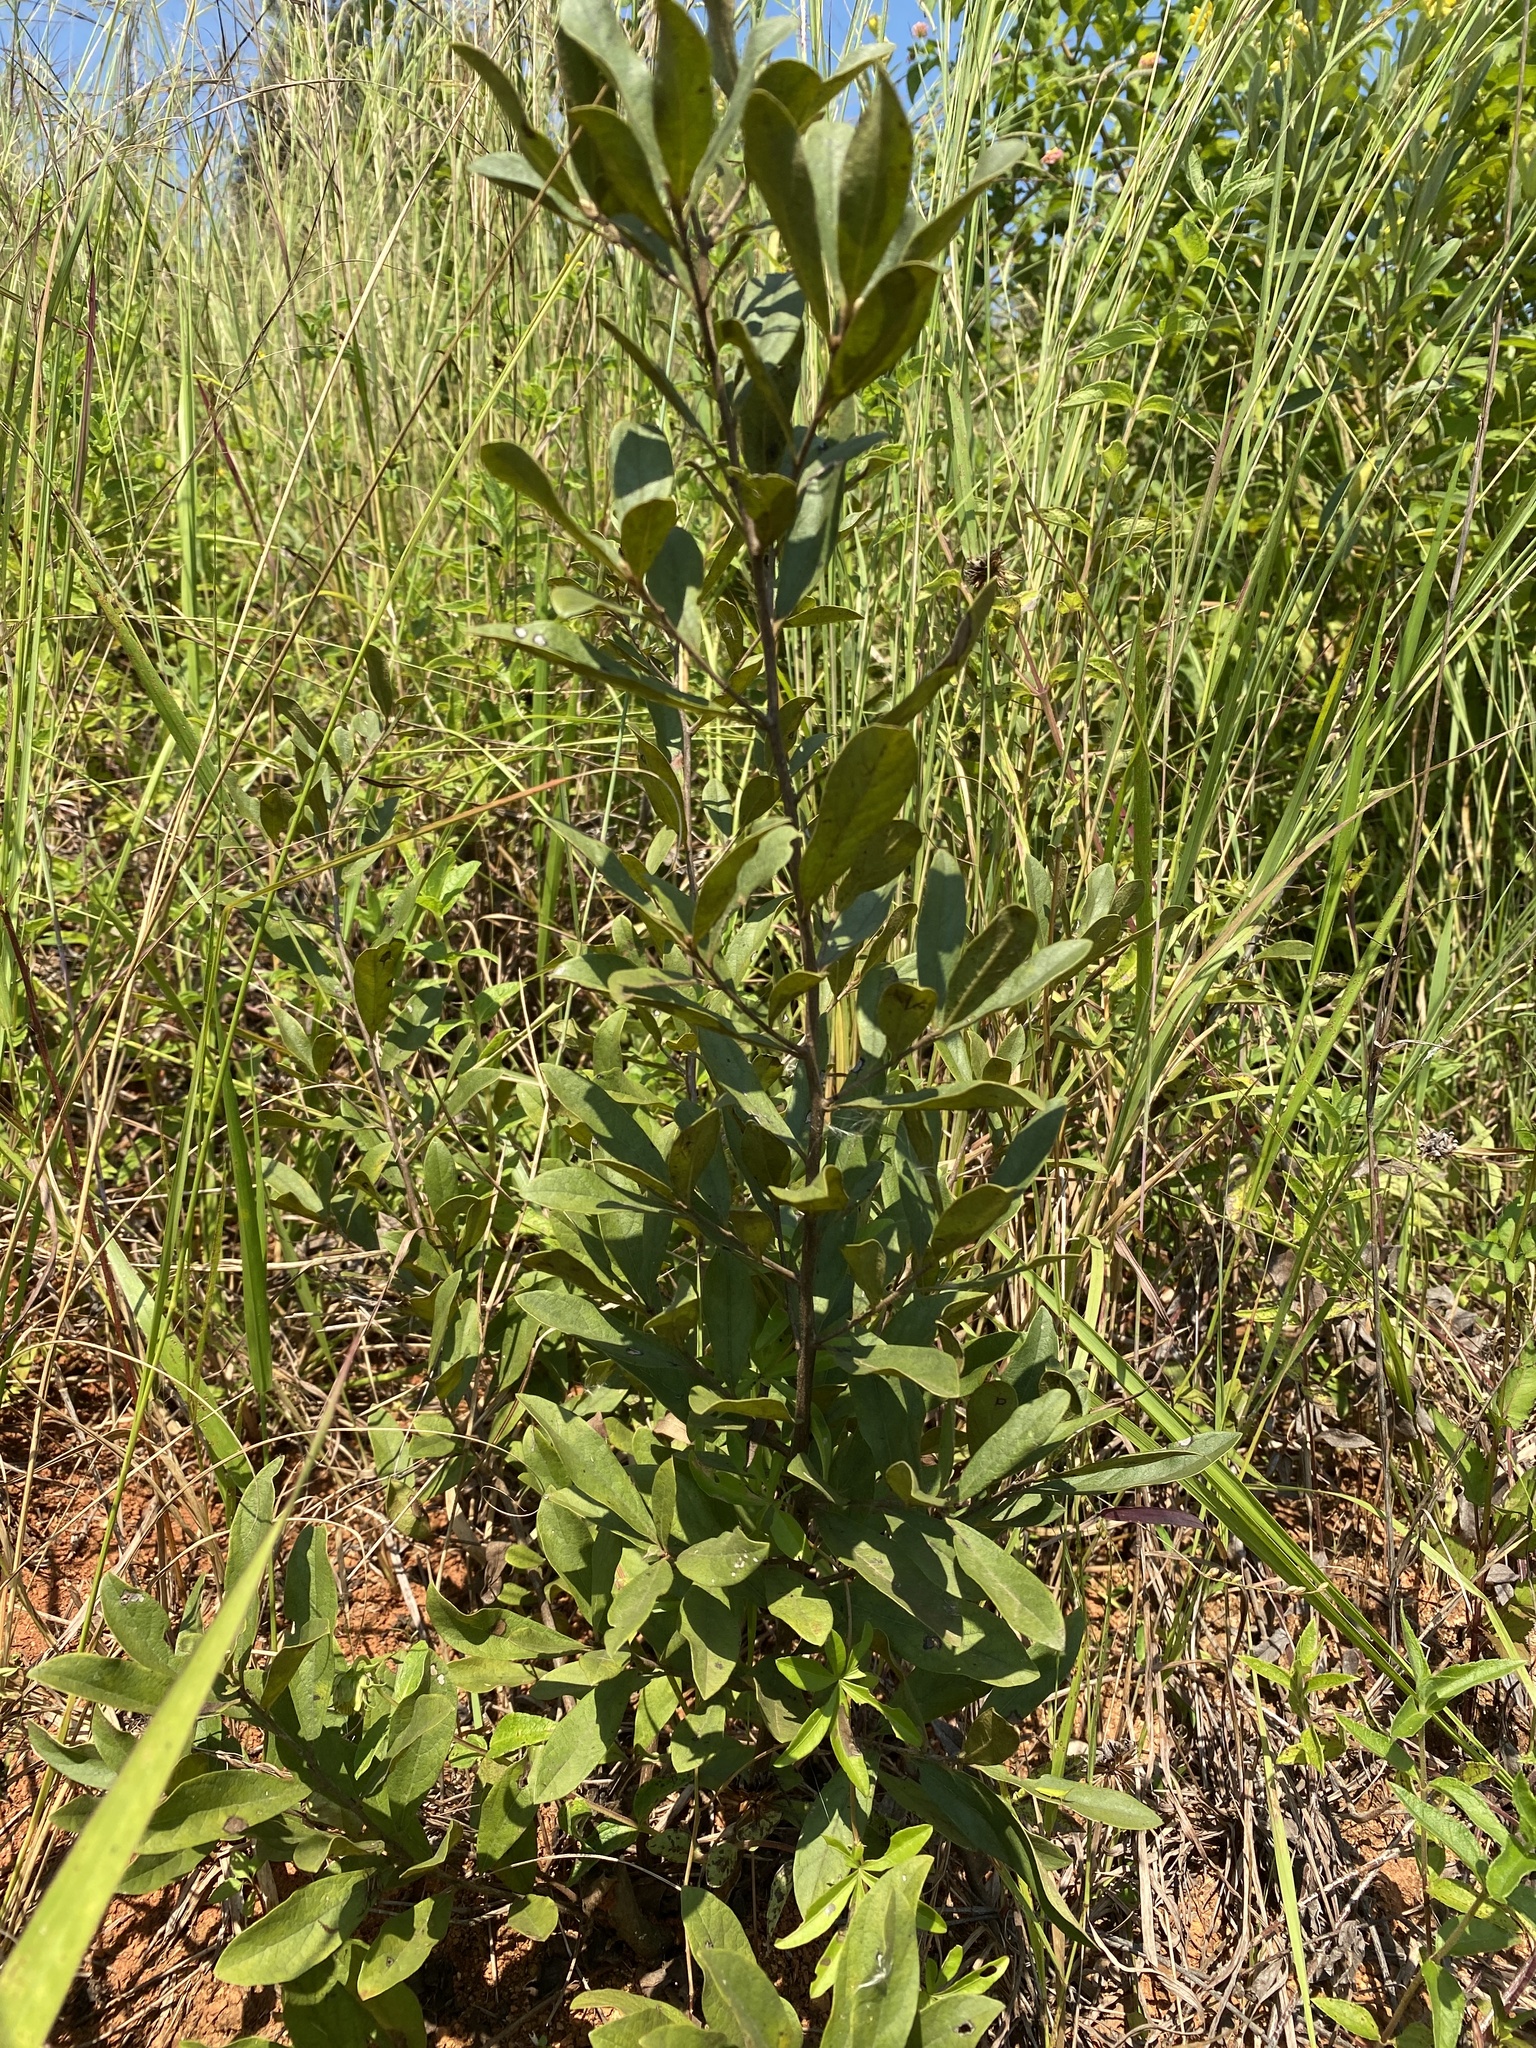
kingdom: Plantae
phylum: Tracheophyta
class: Magnoliopsida
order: Ericales
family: Ebenaceae
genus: Diospyros
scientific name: Diospyros lycioides
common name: Red star apple
